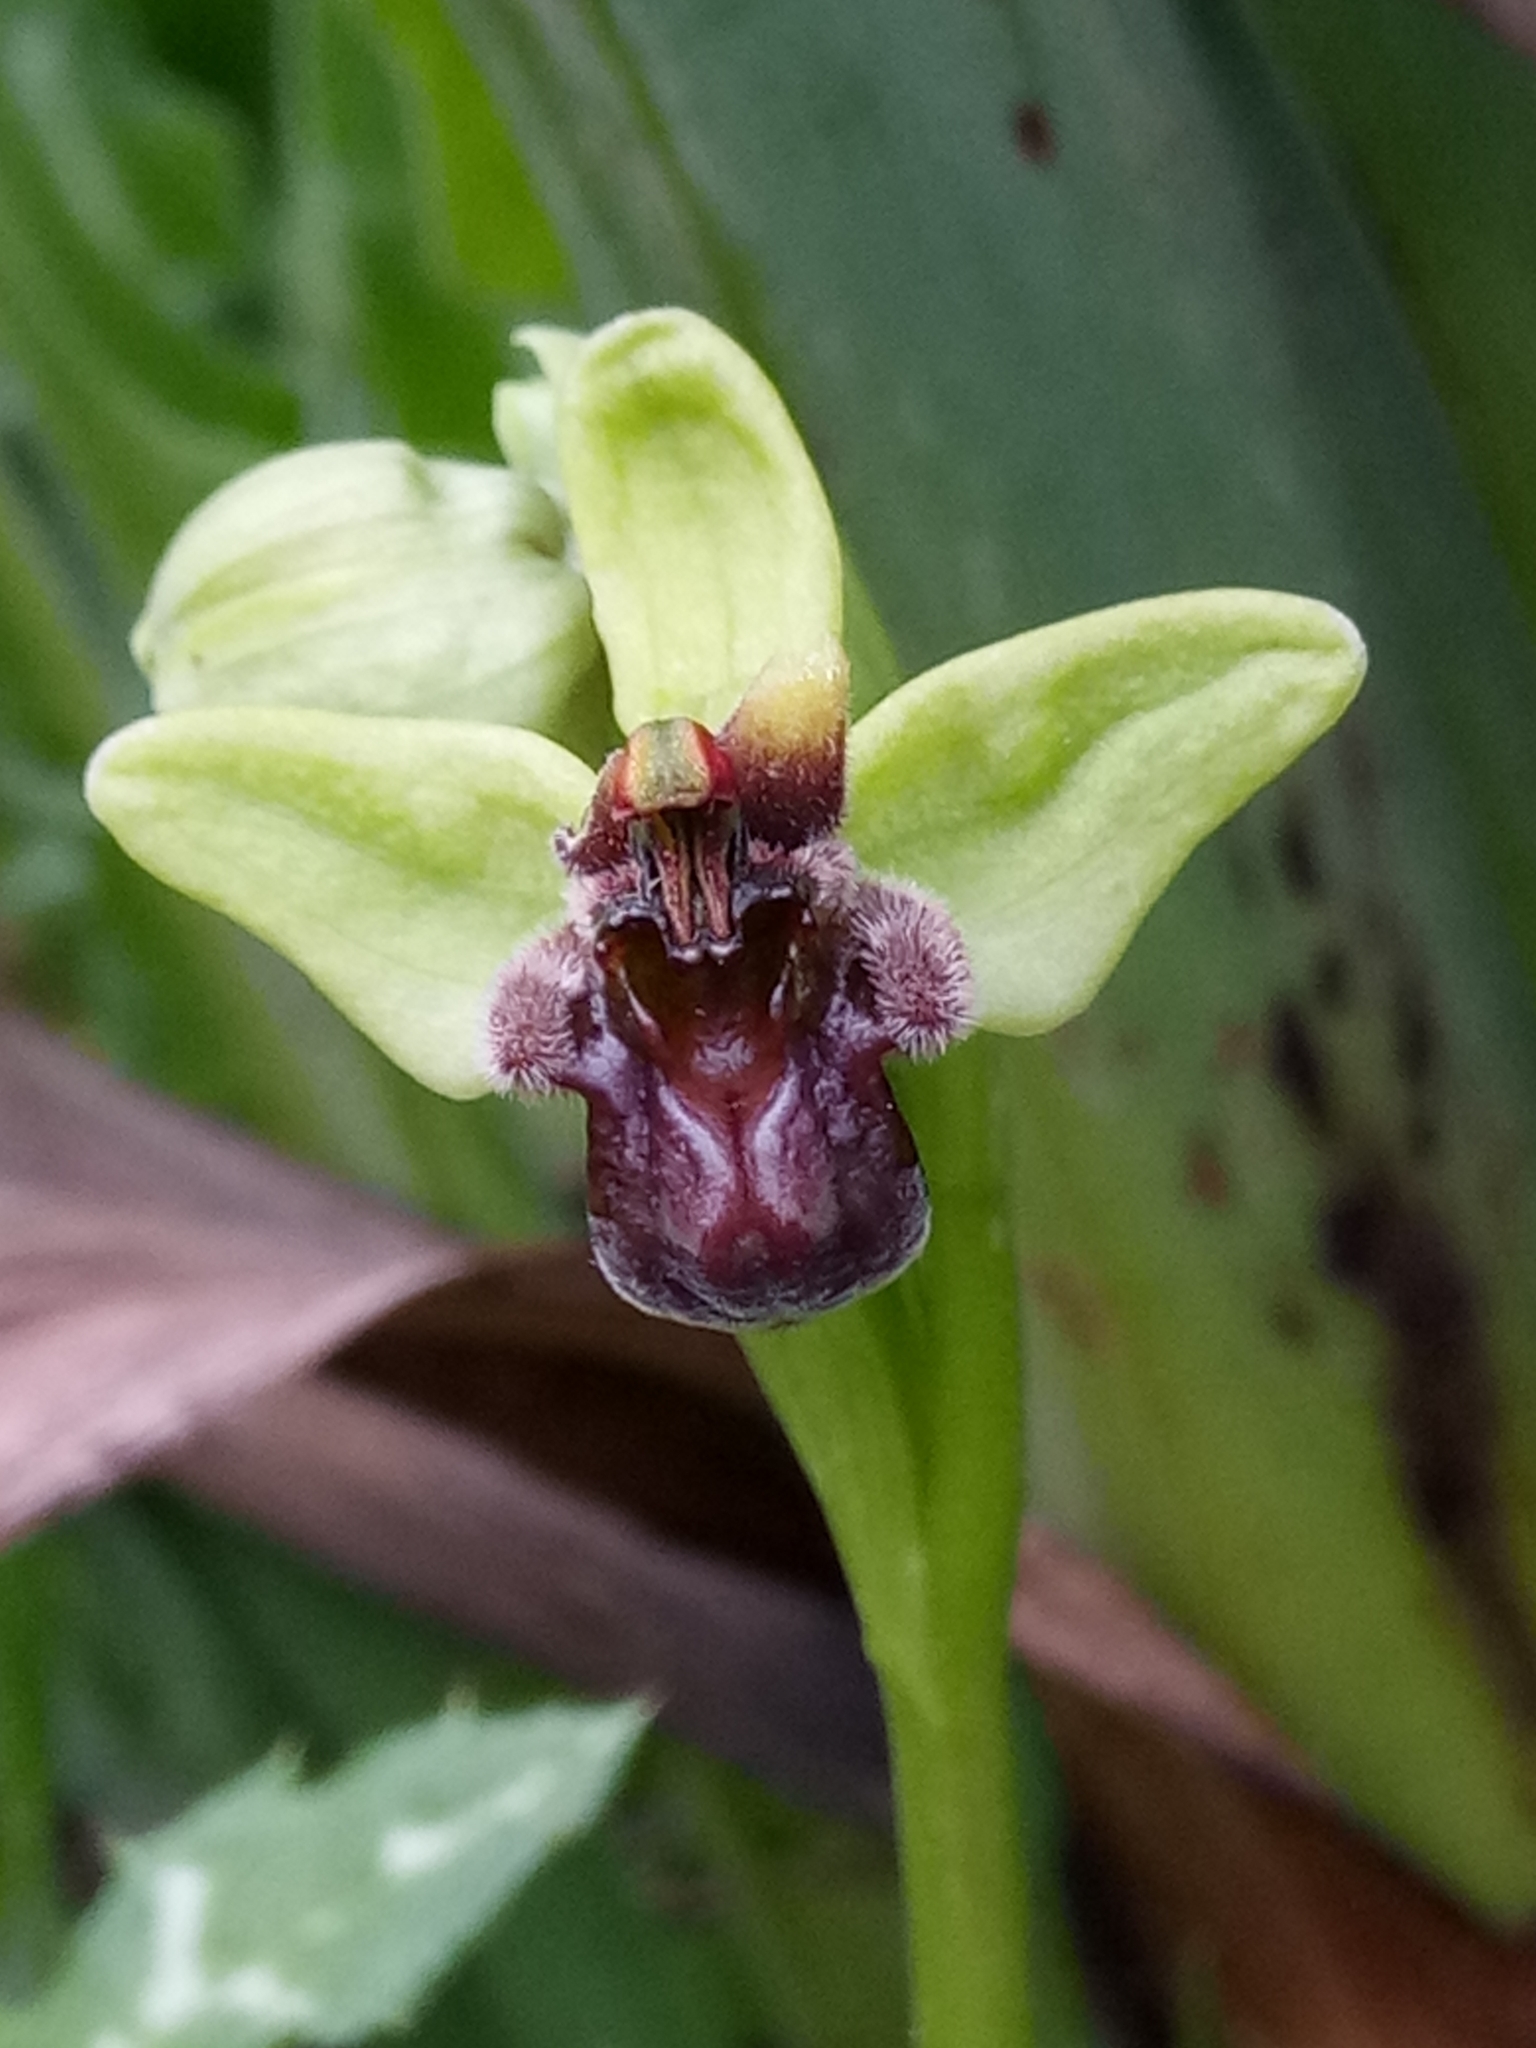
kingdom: Plantae
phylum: Tracheophyta
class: Liliopsida
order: Asparagales
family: Orchidaceae
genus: Ophrys
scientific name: Ophrys bombyliflora
